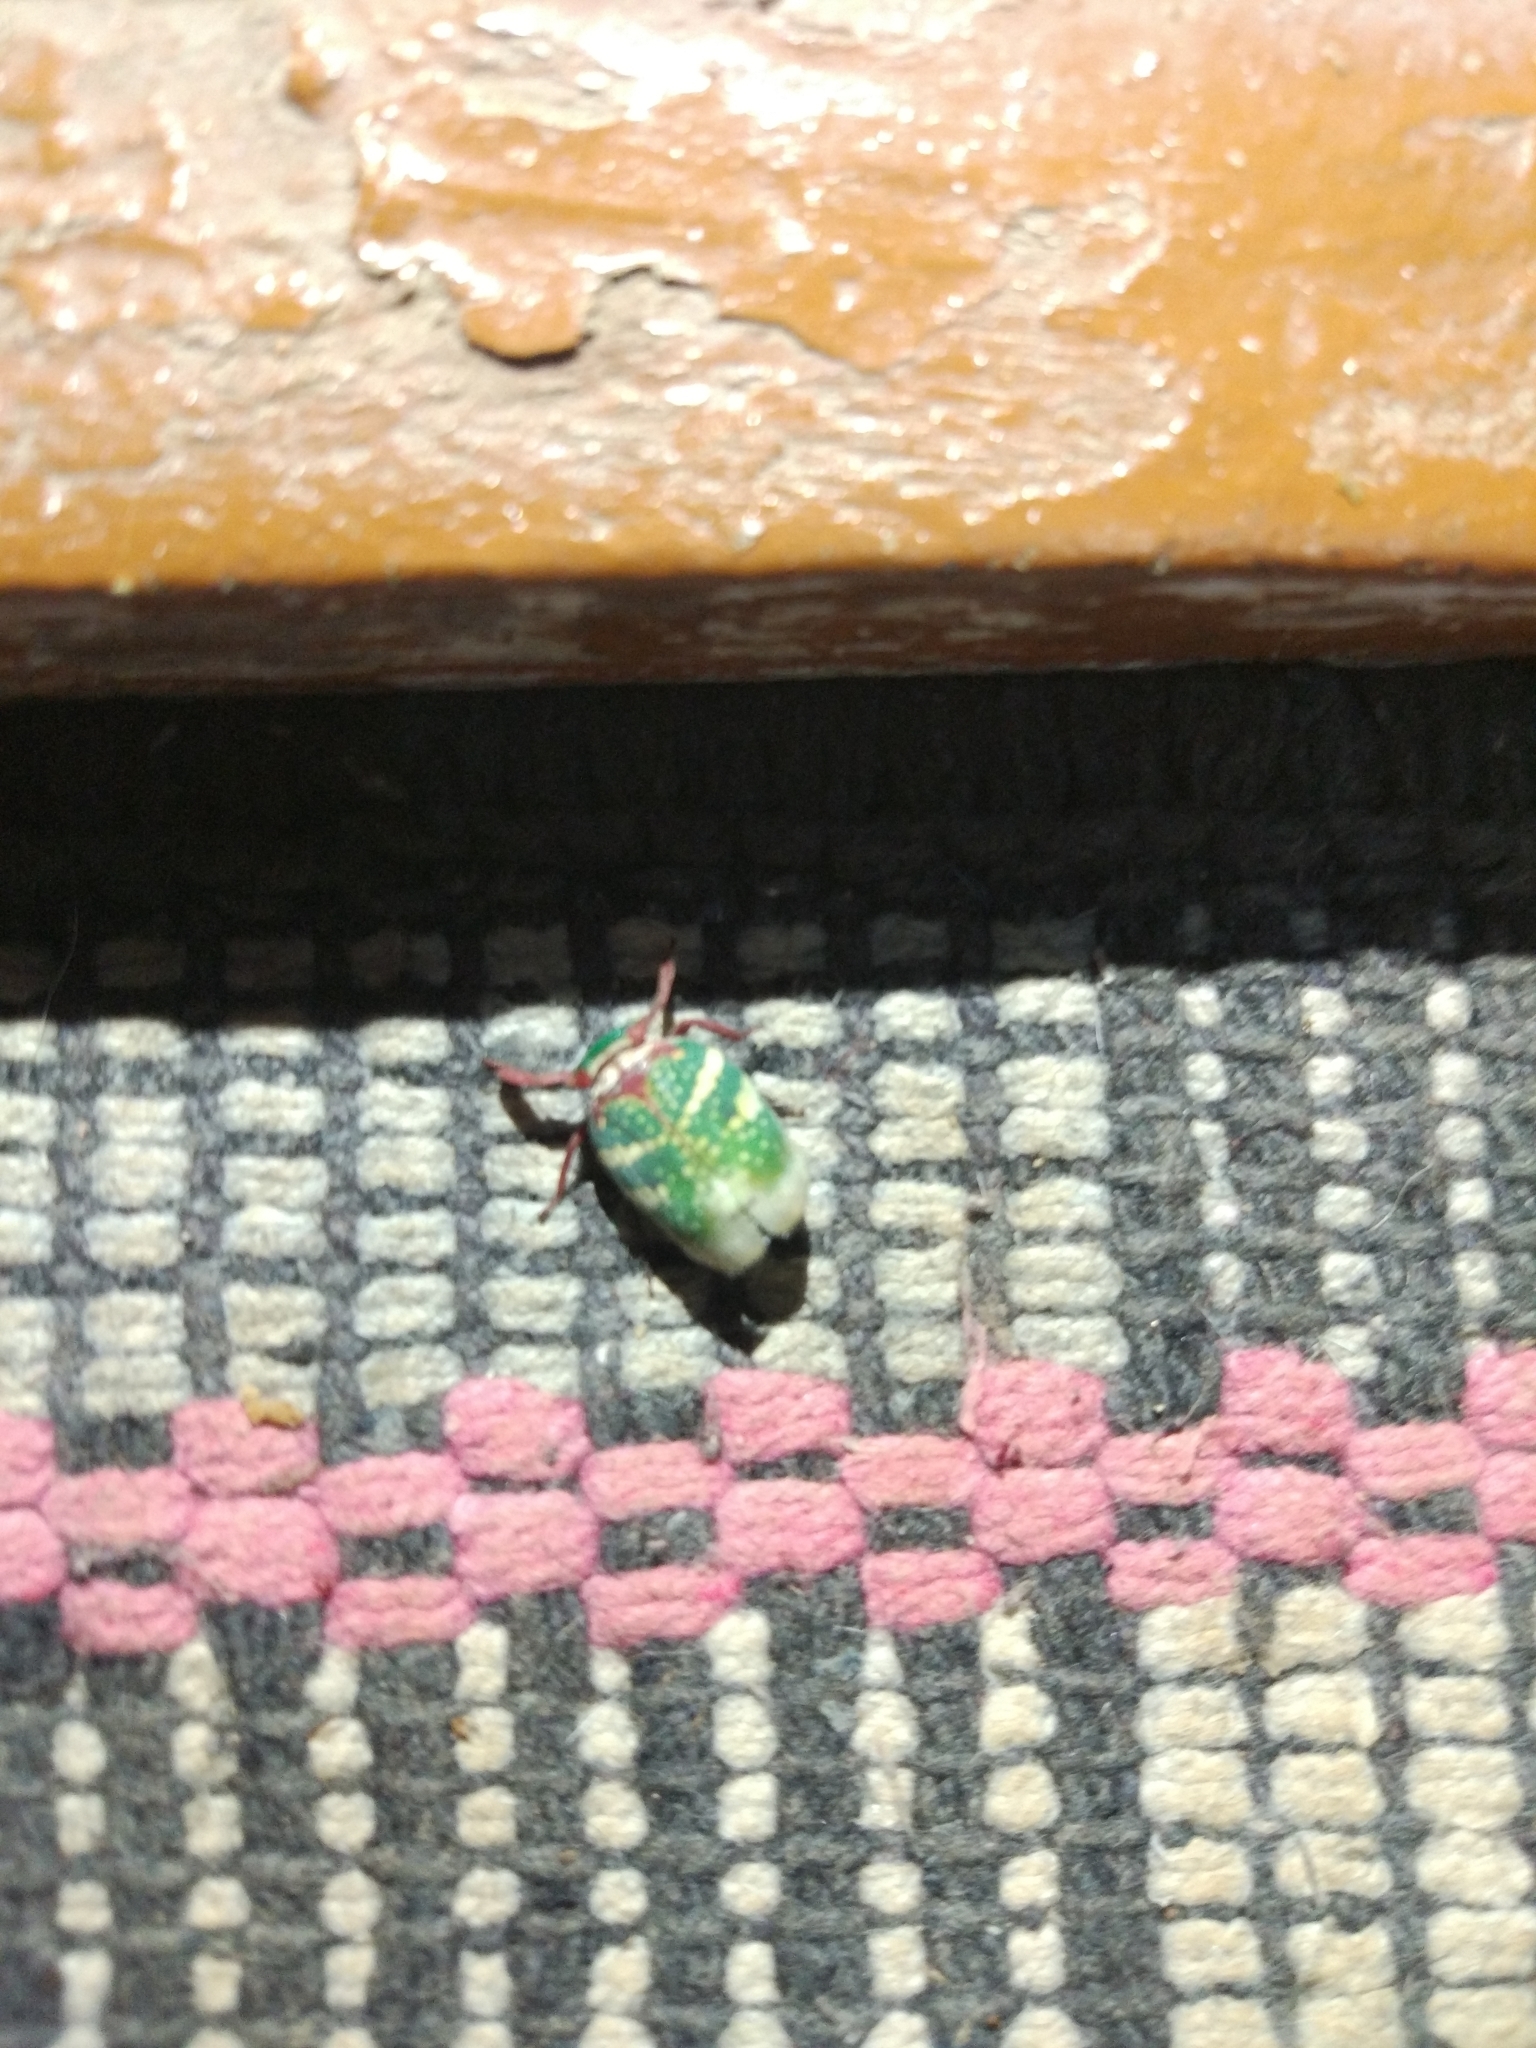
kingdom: Animalia
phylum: Arthropoda
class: Insecta
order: Hemiptera
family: Eurybrachidae
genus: Eurybrachys
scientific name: Eurybrachys tomentosa
